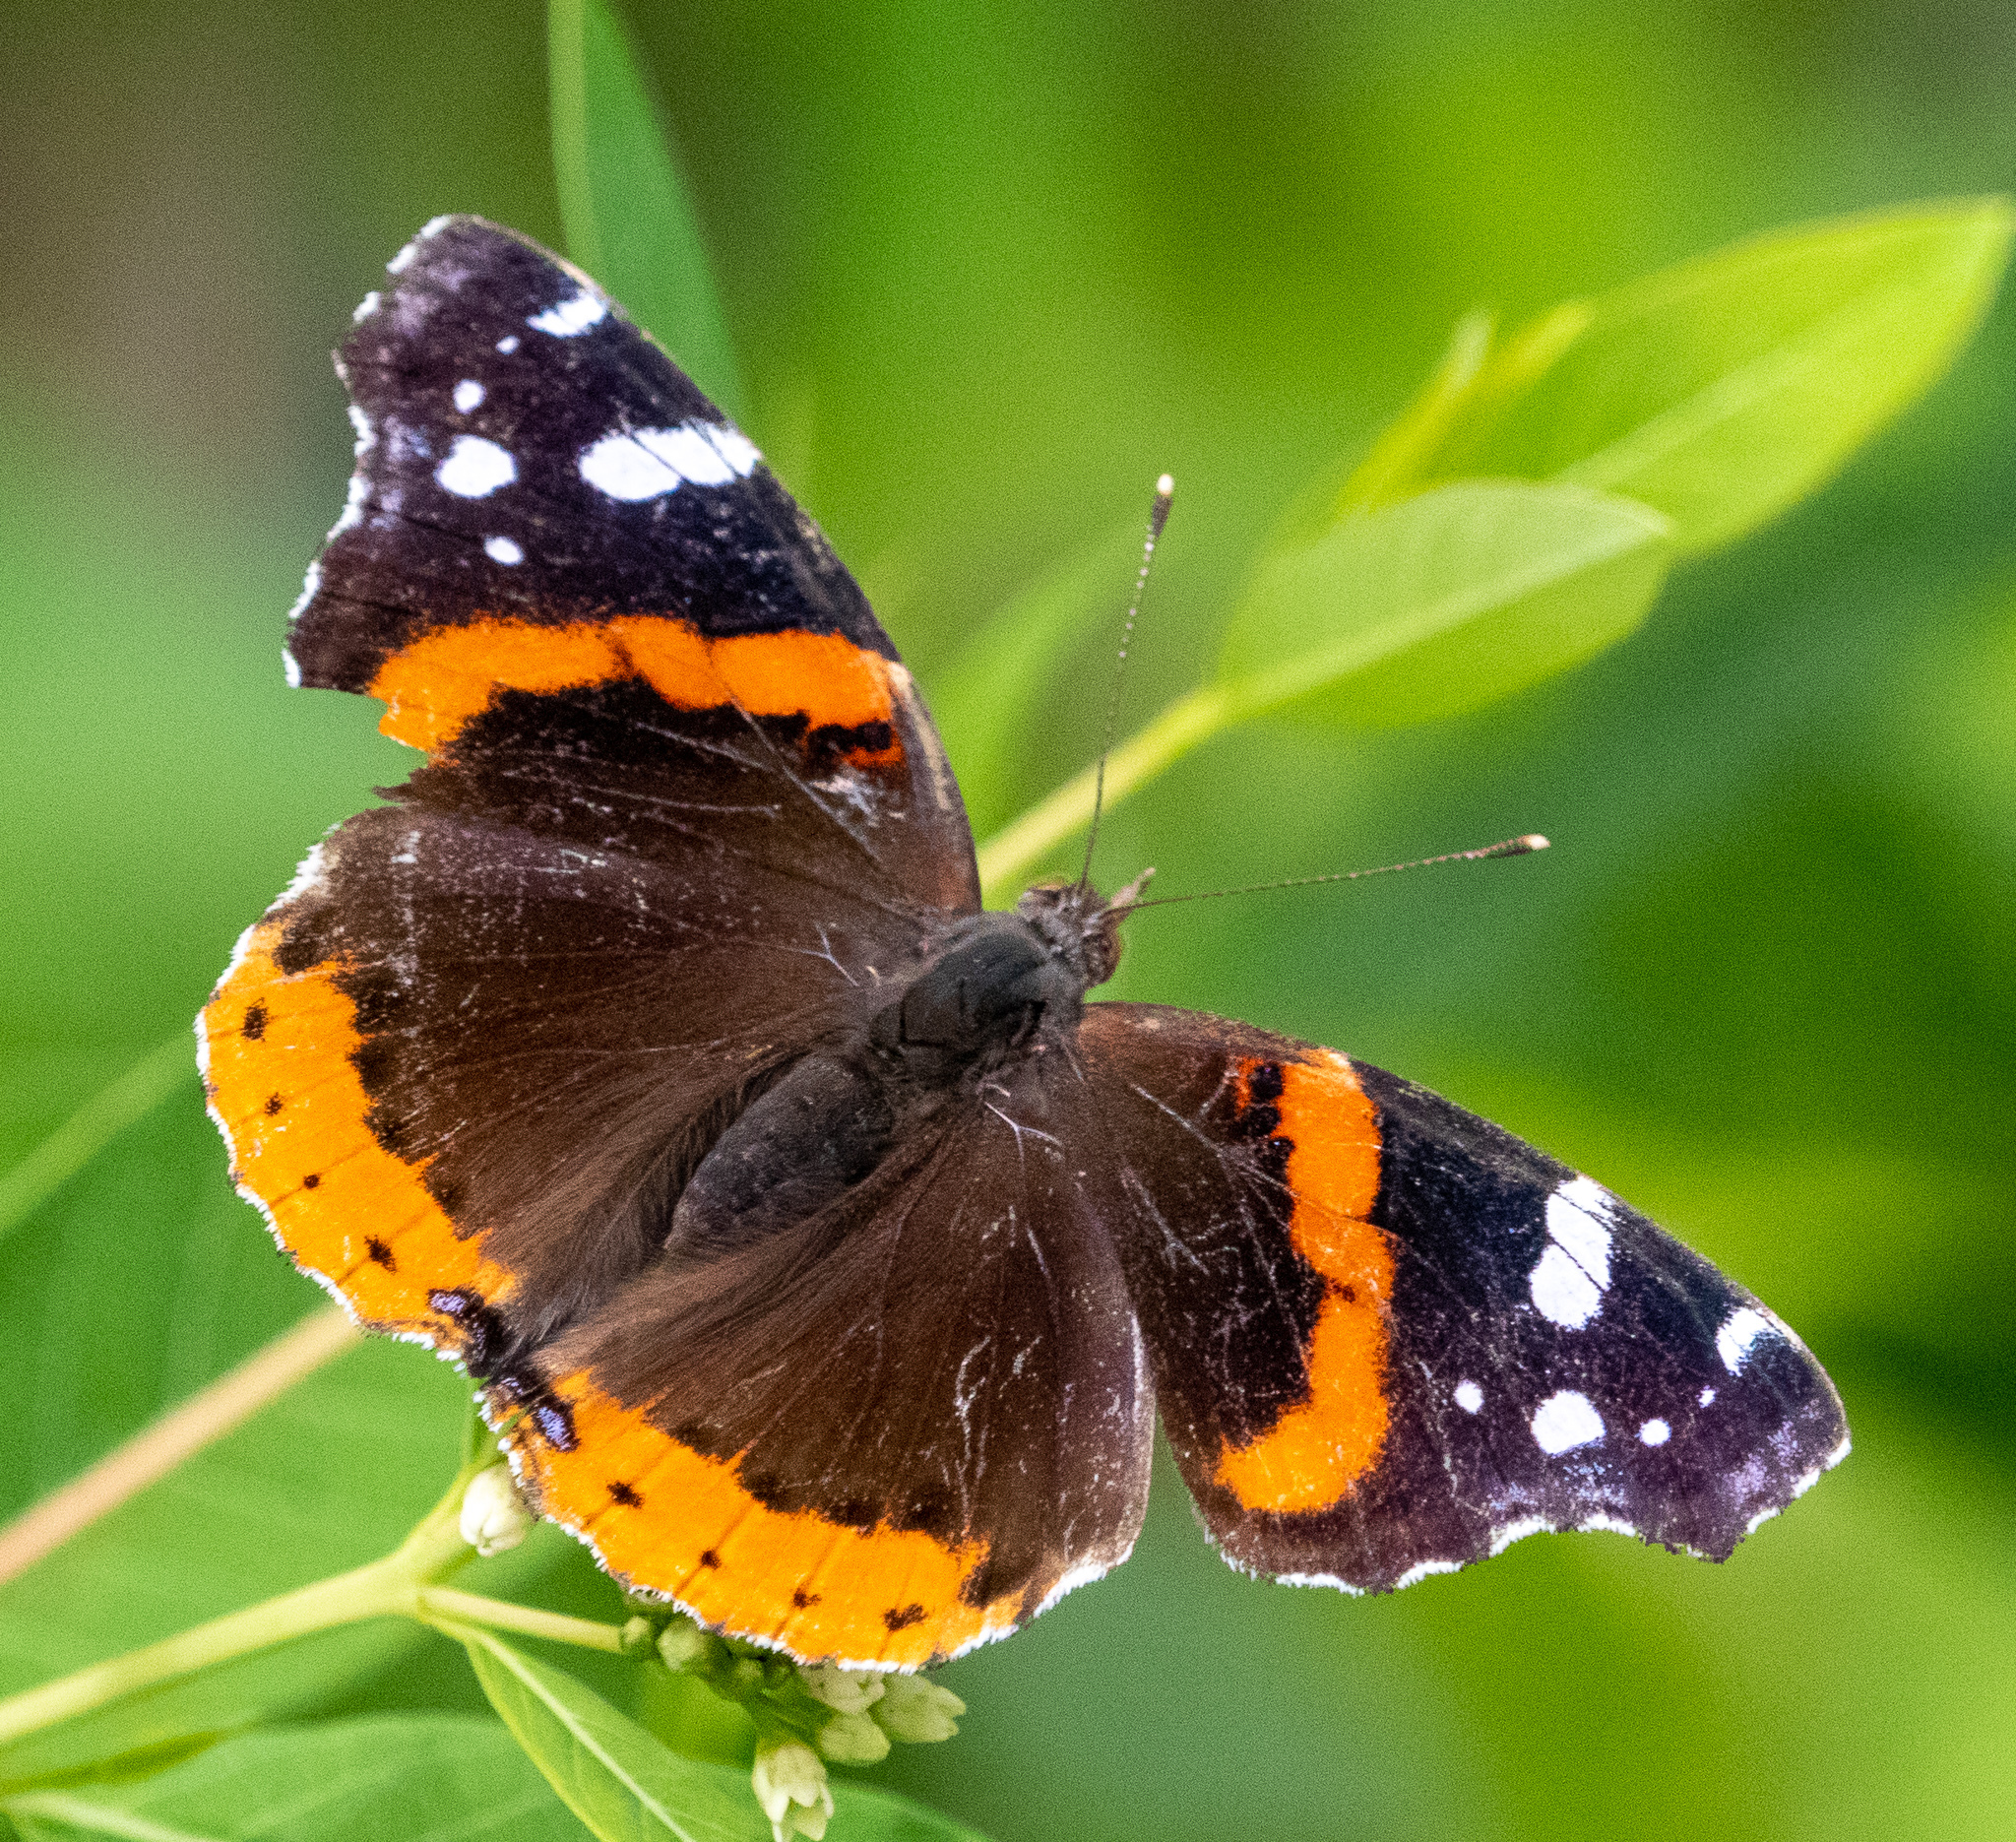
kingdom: Animalia
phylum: Arthropoda
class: Insecta
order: Lepidoptera
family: Nymphalidae
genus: Vanessa
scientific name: Vanessa atalanta
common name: Red admiral
